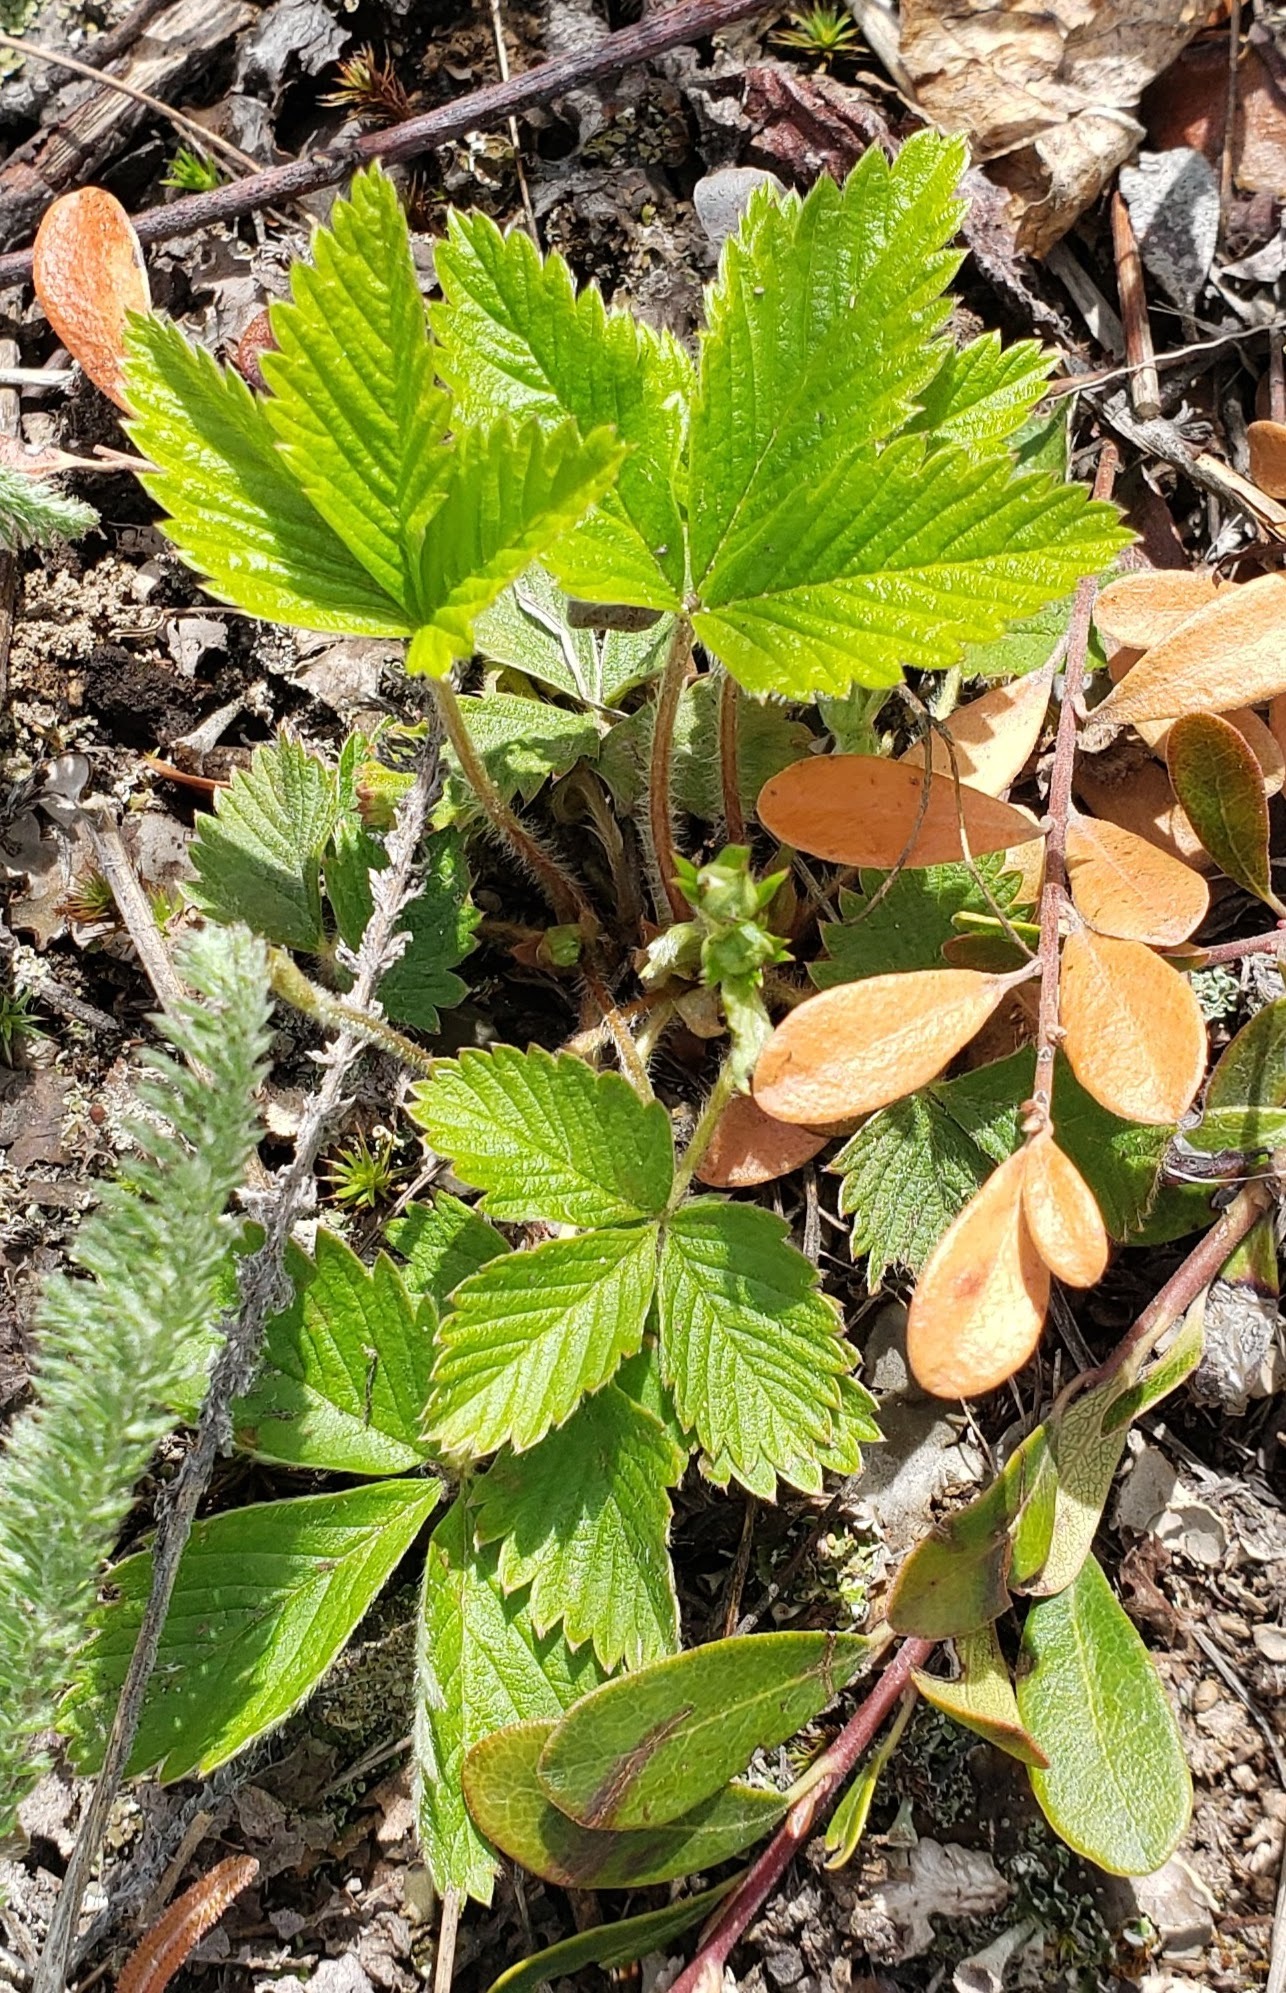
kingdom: Plantae
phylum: Tracheophyta
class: Magnoliopsida
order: Rosales
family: Rosaceae
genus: Fragaria
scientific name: Fragaria vesca
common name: Wild strawberry
